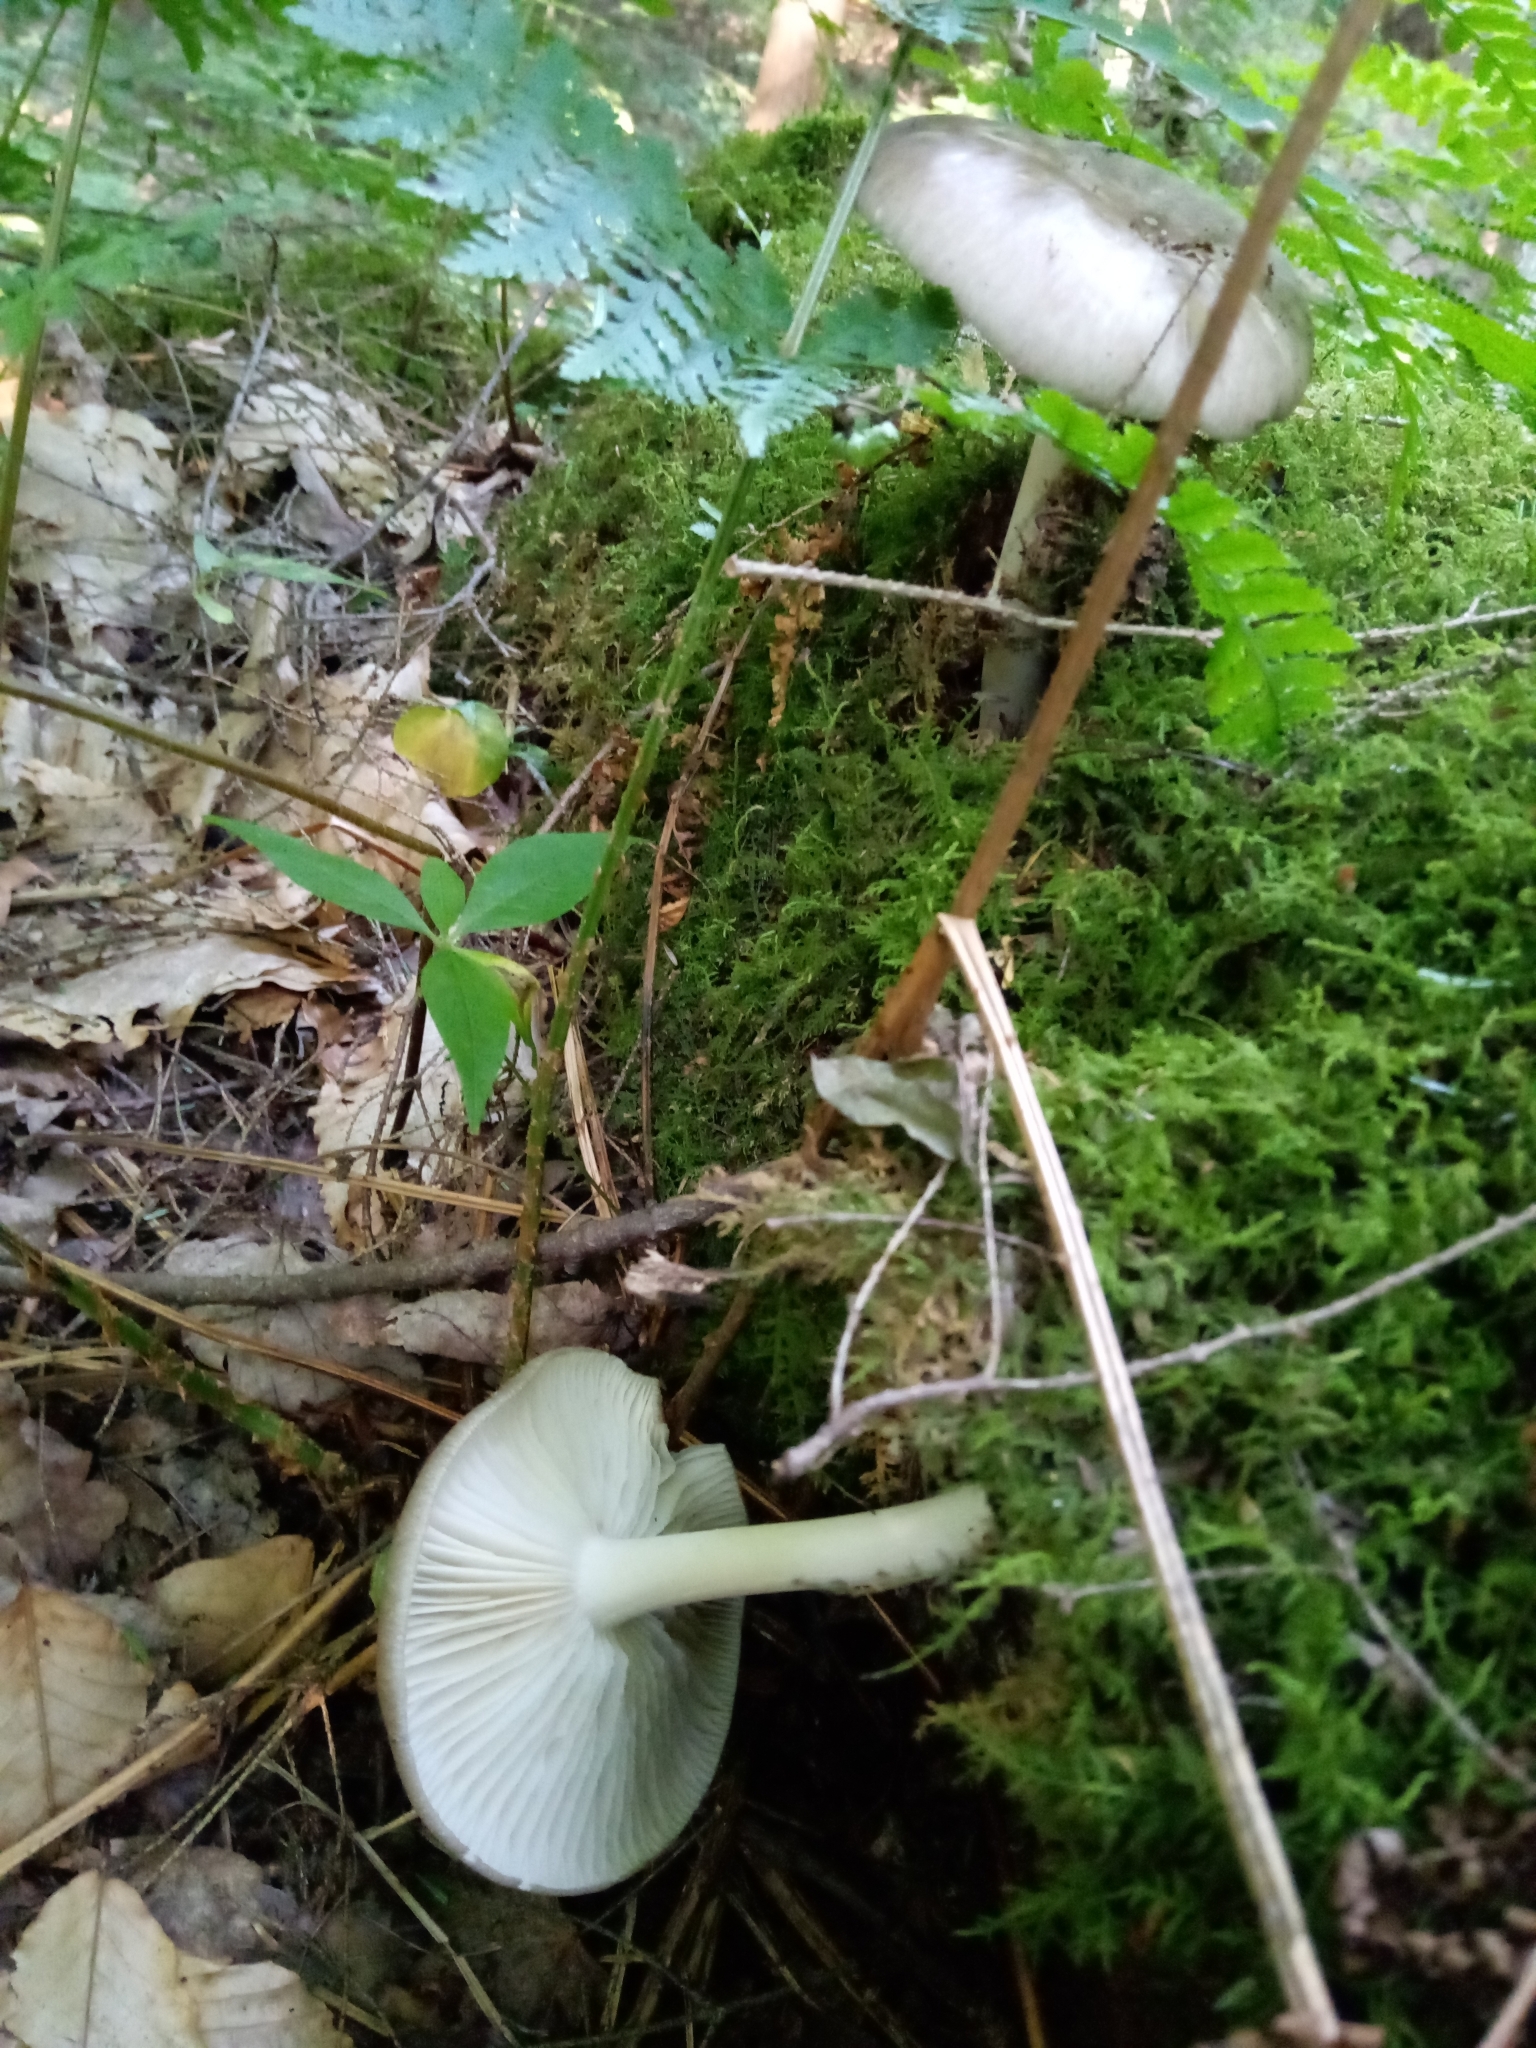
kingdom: Fungi
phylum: Basidiomycota
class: Agaricomycetes
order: Agaricales
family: Tricholomataceae
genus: Megacollybia
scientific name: Megacollybia rodmanii
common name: Eastern american platterful mushroom
